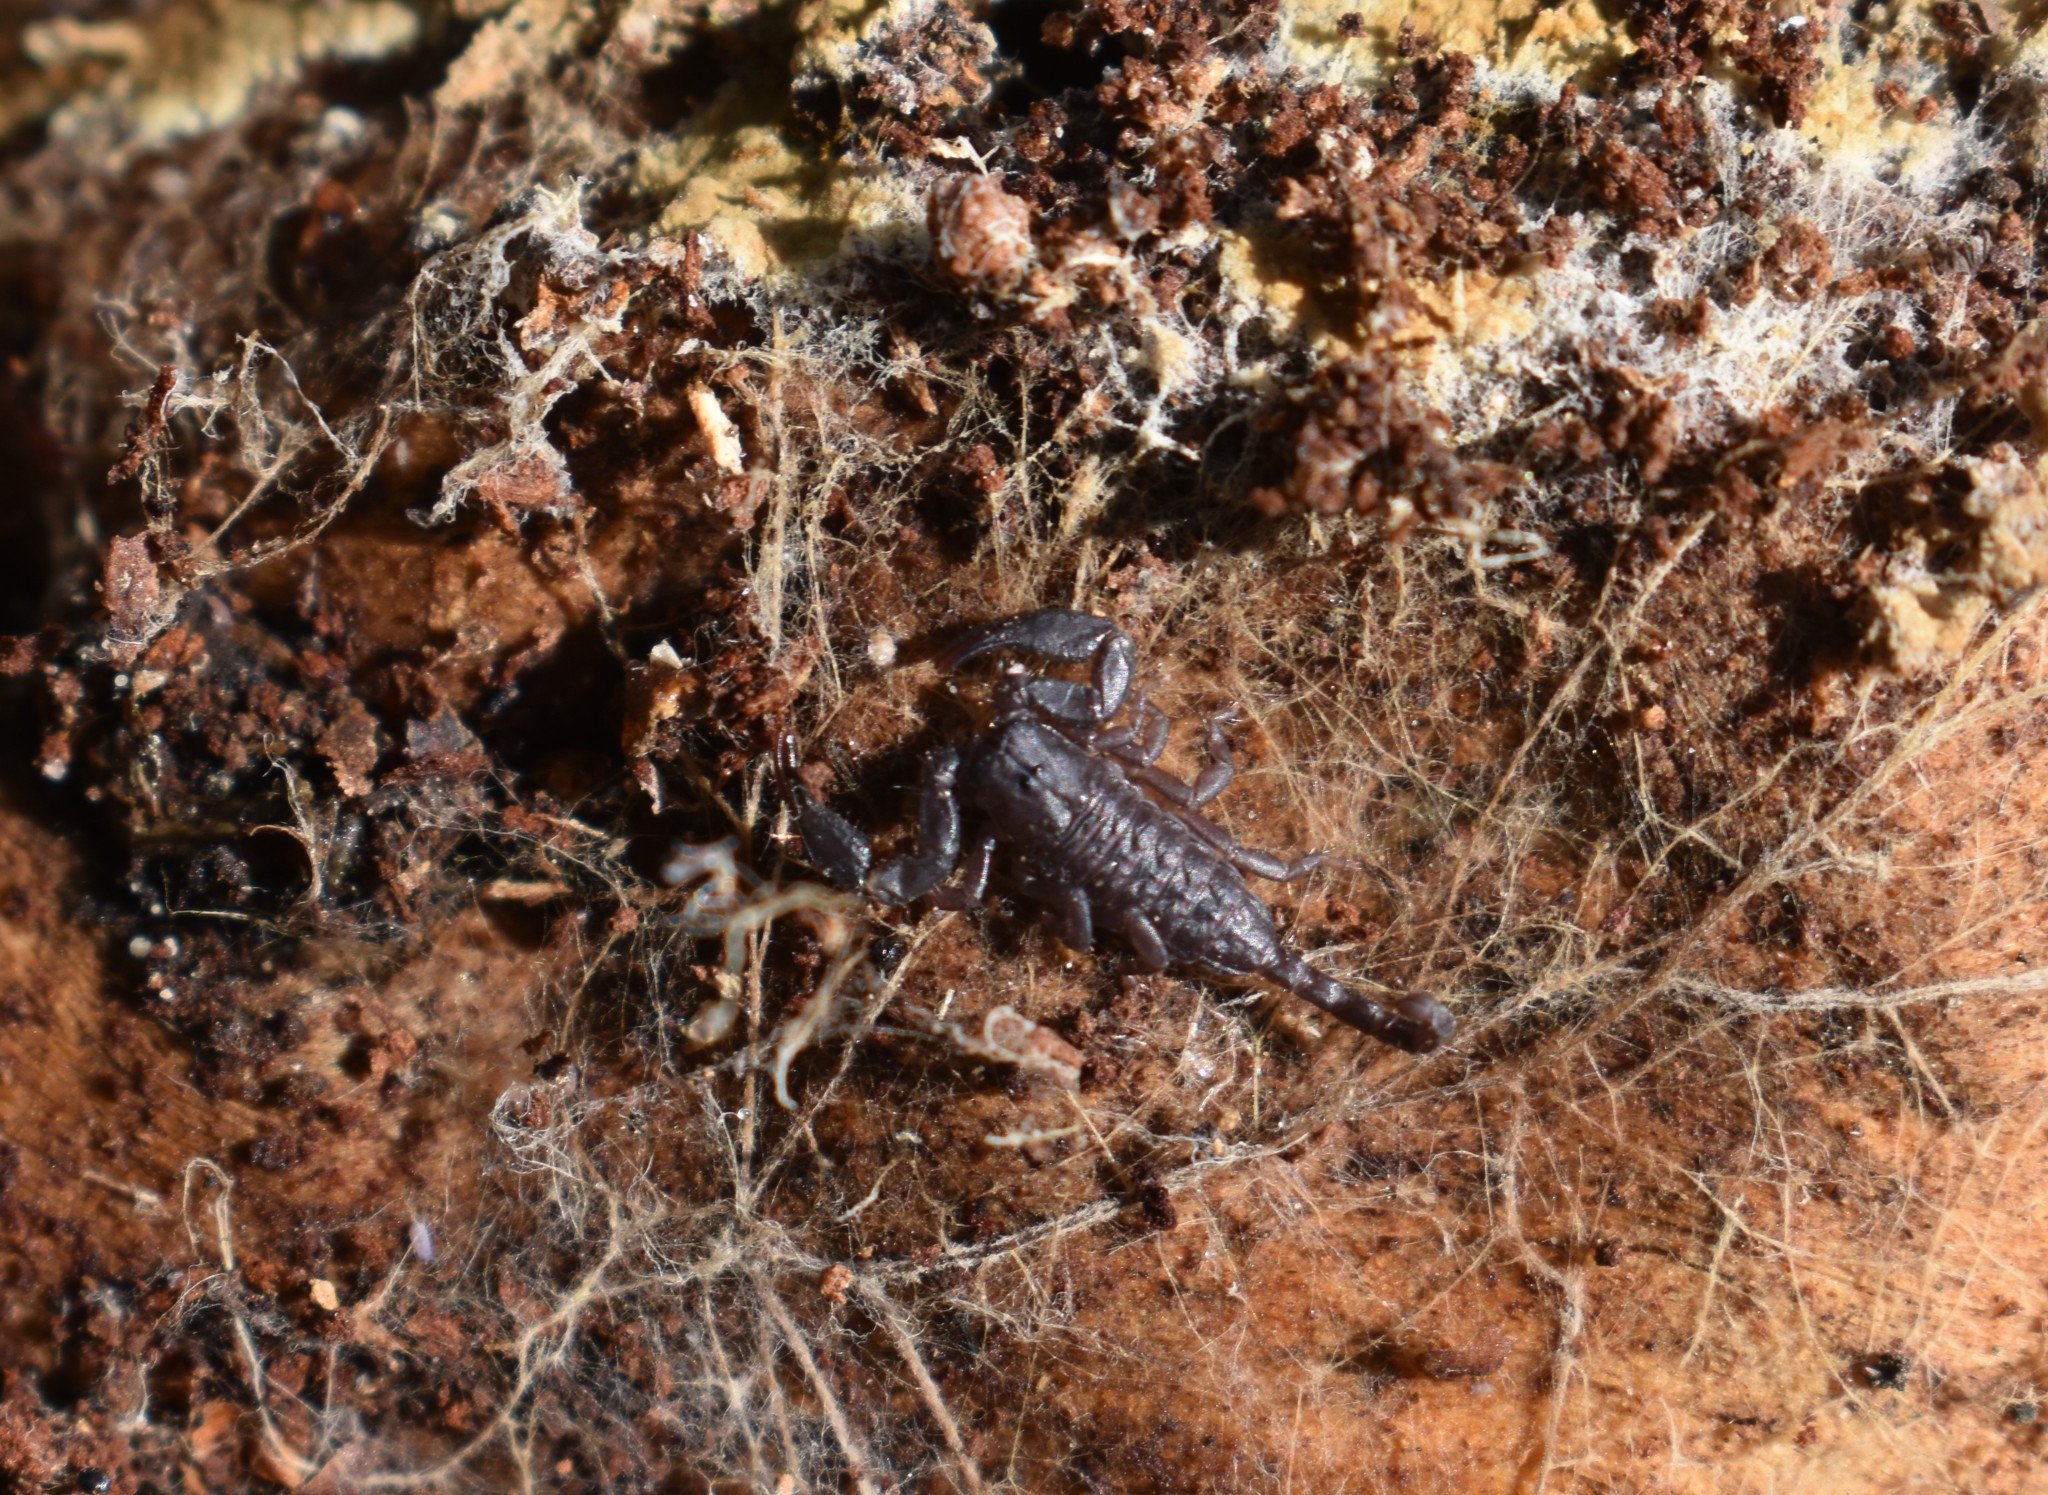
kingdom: Animalia
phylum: Arthropoda
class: Arachnida
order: Scorpiones
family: Hormuridae
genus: Opisthacanthus
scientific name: Opisthacanthus capensis
